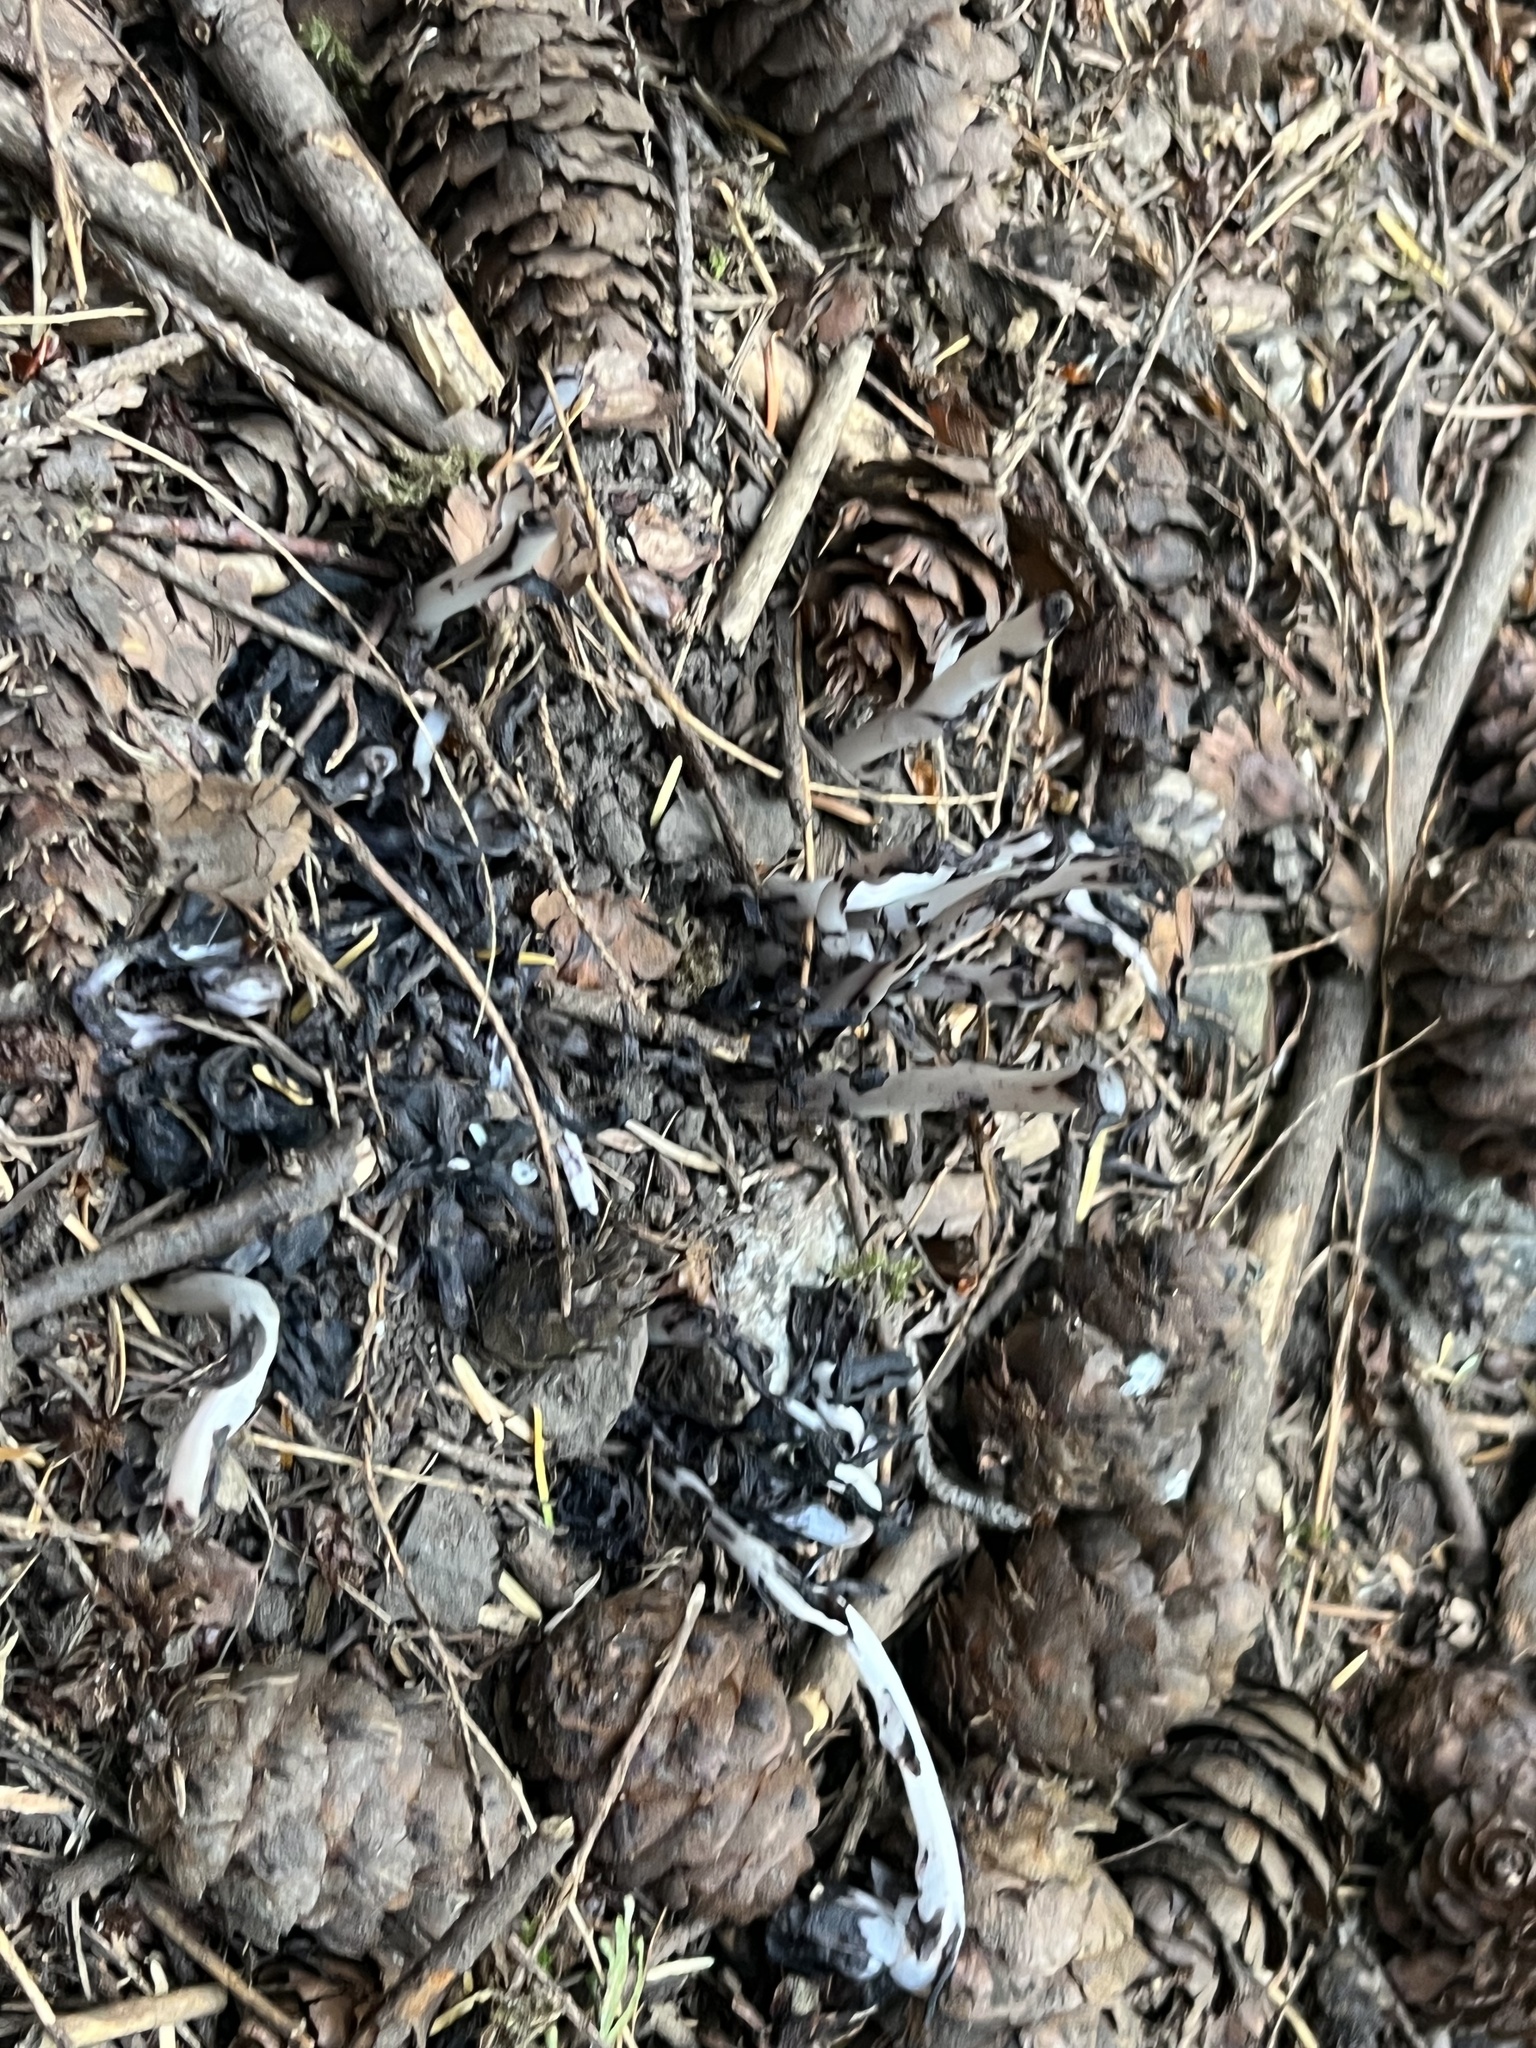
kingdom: Plantae
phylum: Tracheophyta
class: Magnoliopsida
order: Ericales
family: Ericaceae
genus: Monotropa
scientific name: Monotropa uniflora
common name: Convulsion root
